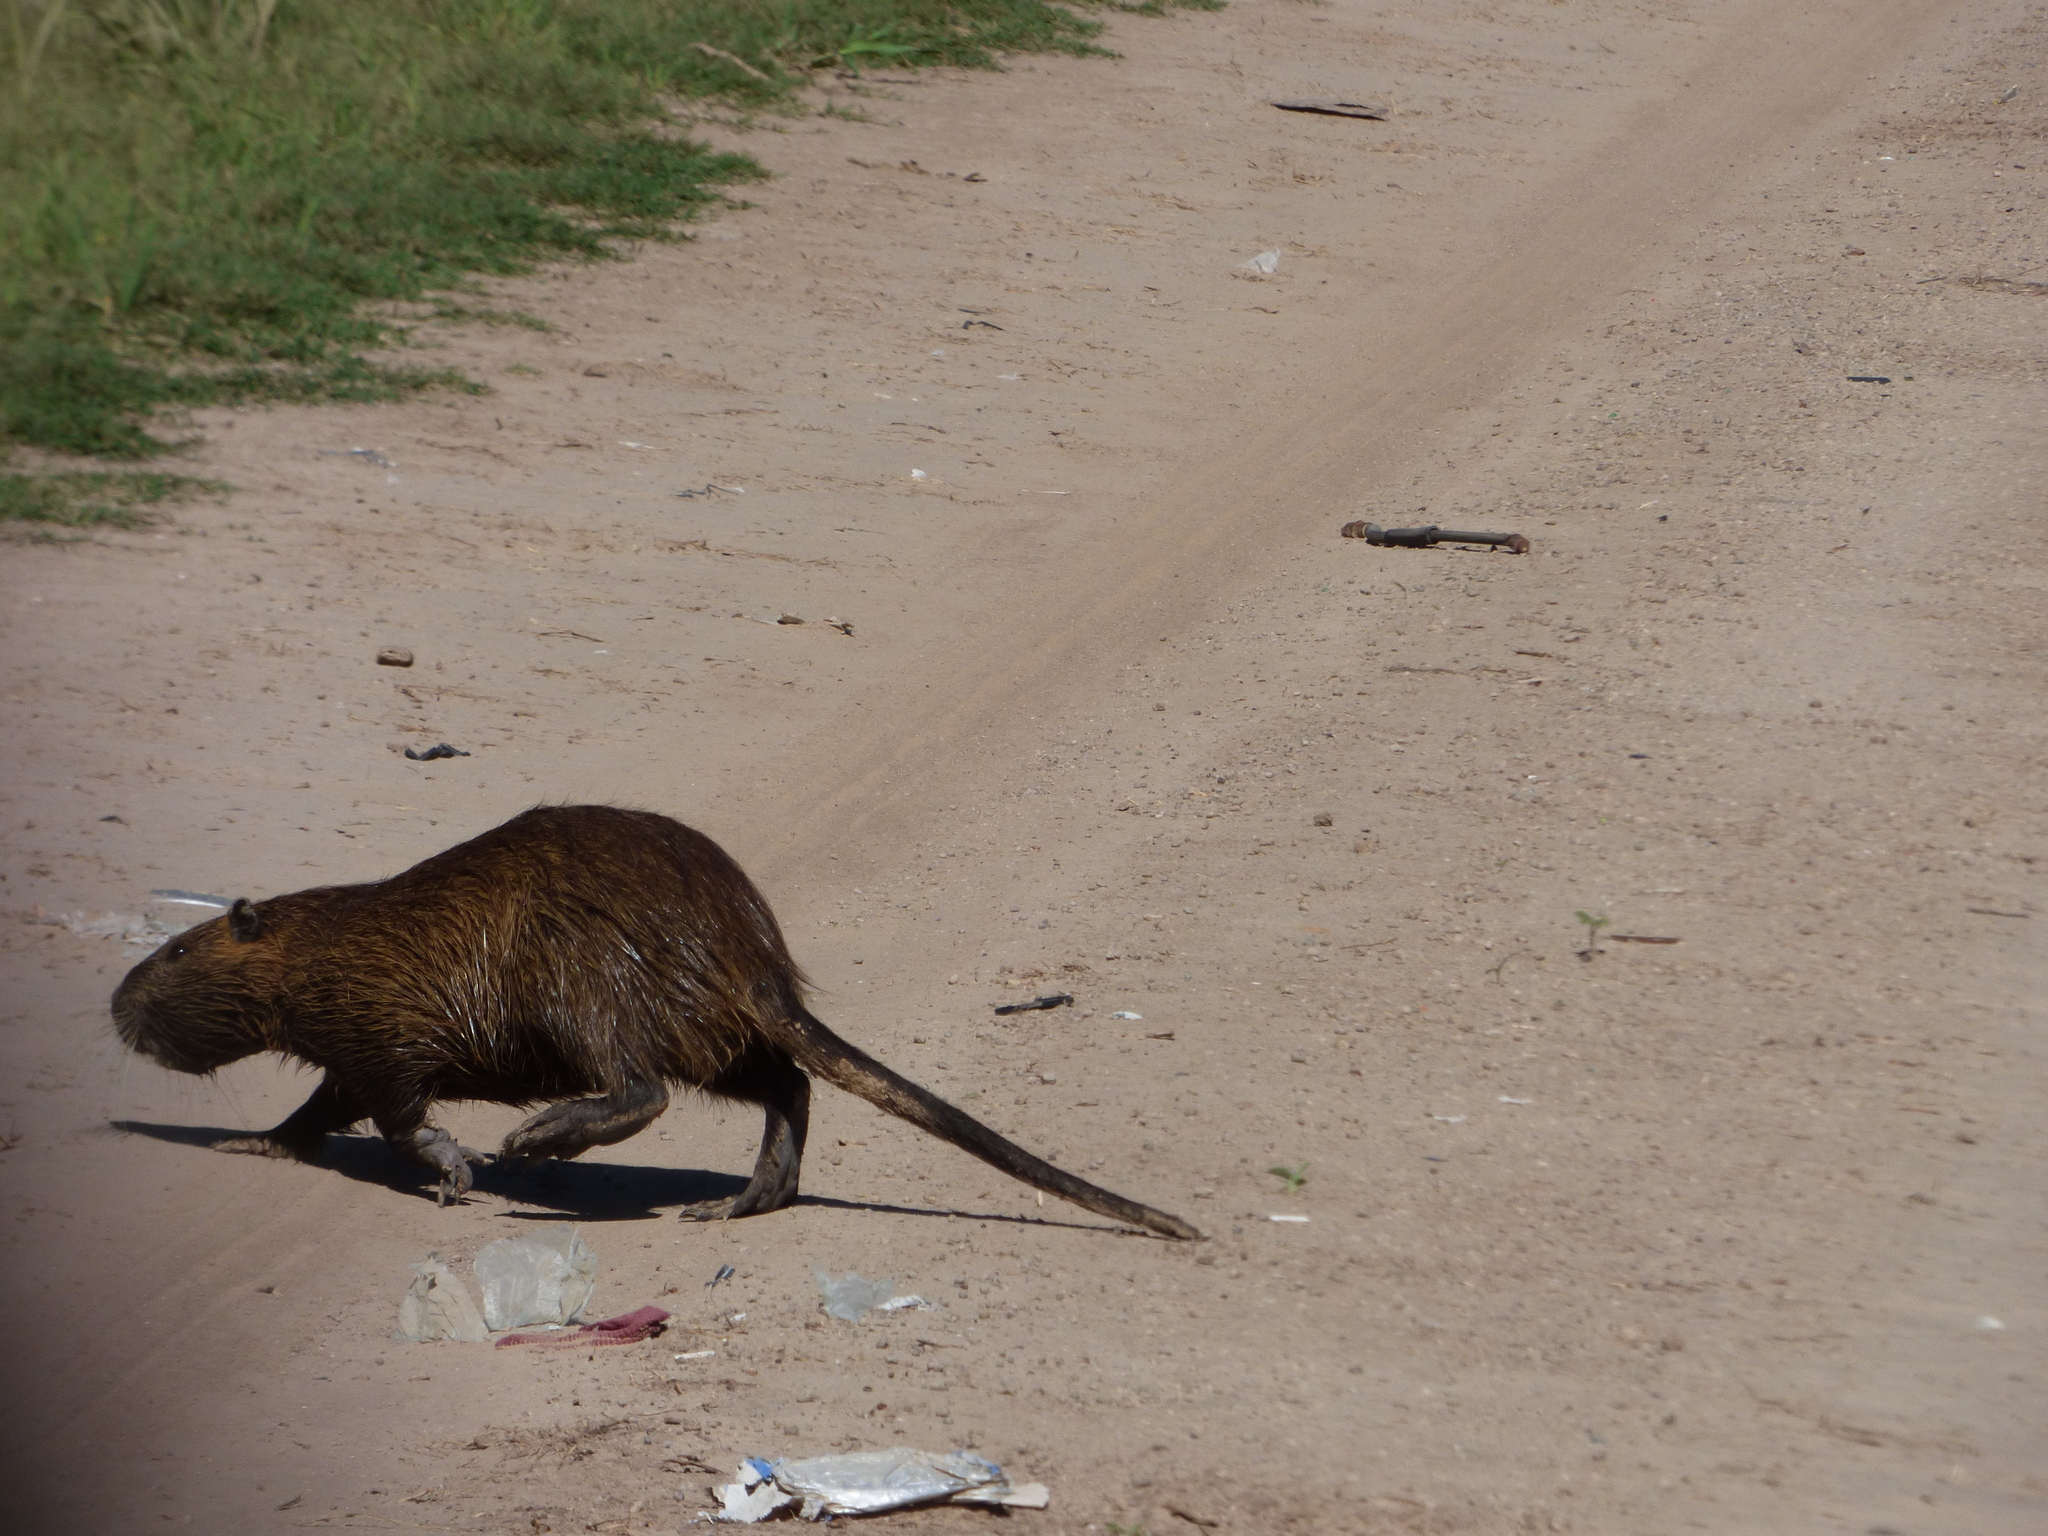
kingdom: Animalia
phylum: Chordata
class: Mammalia
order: Rodentia
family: Myocastoridae
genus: Myocastor
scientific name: Myocastor coypus
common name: Coypu
